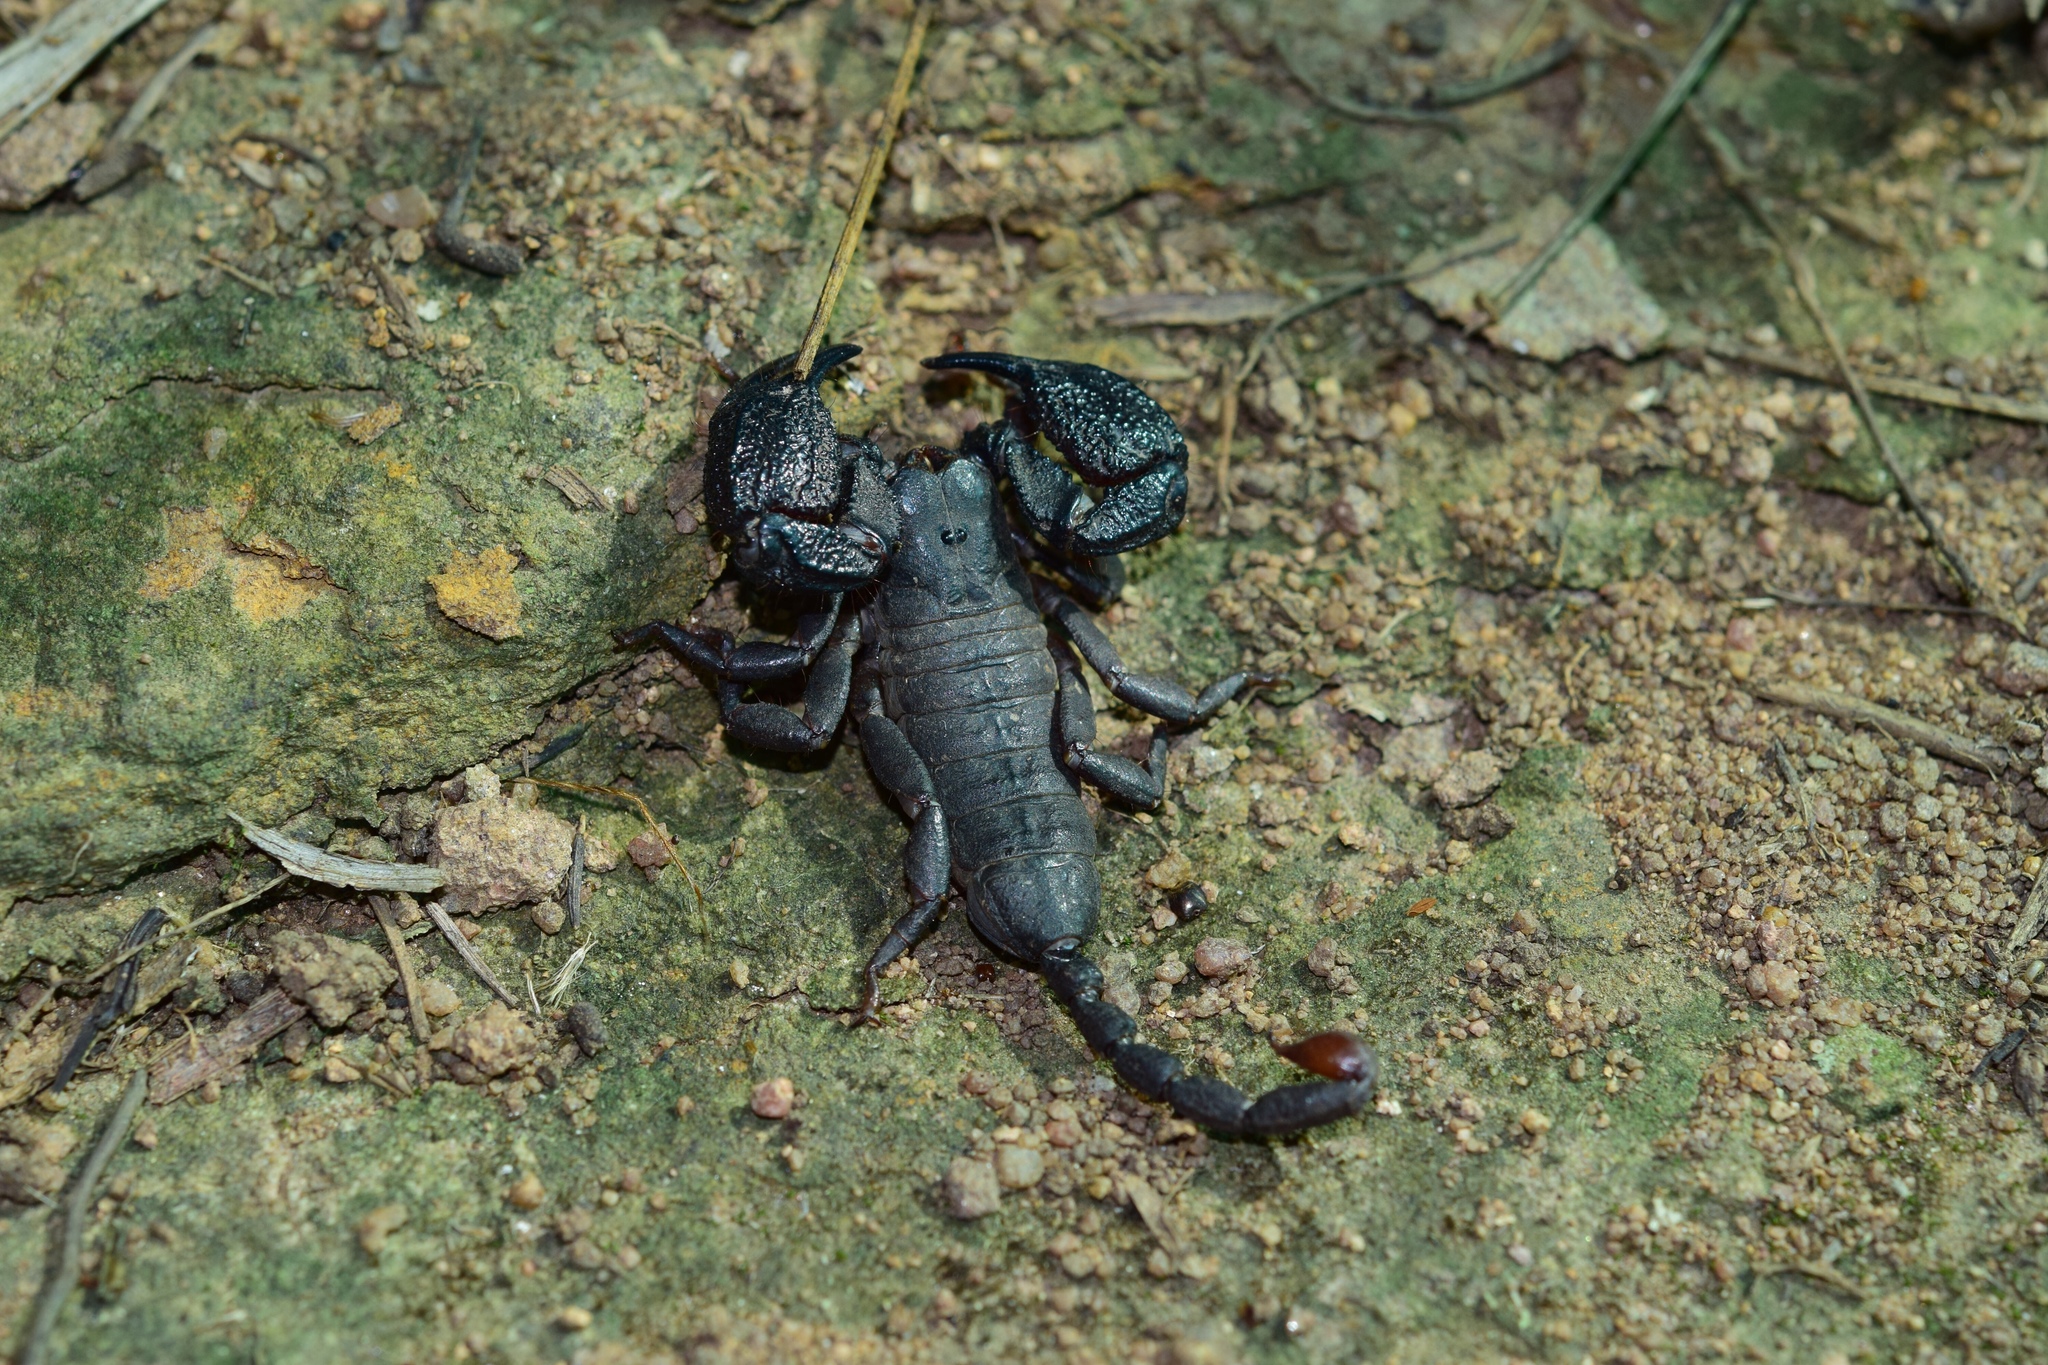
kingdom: Animalia
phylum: Arthropoda
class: Arachnida
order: Scorpiones
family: Hormuridae
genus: Opisthacanthus
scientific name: Opisthacanthus validus
